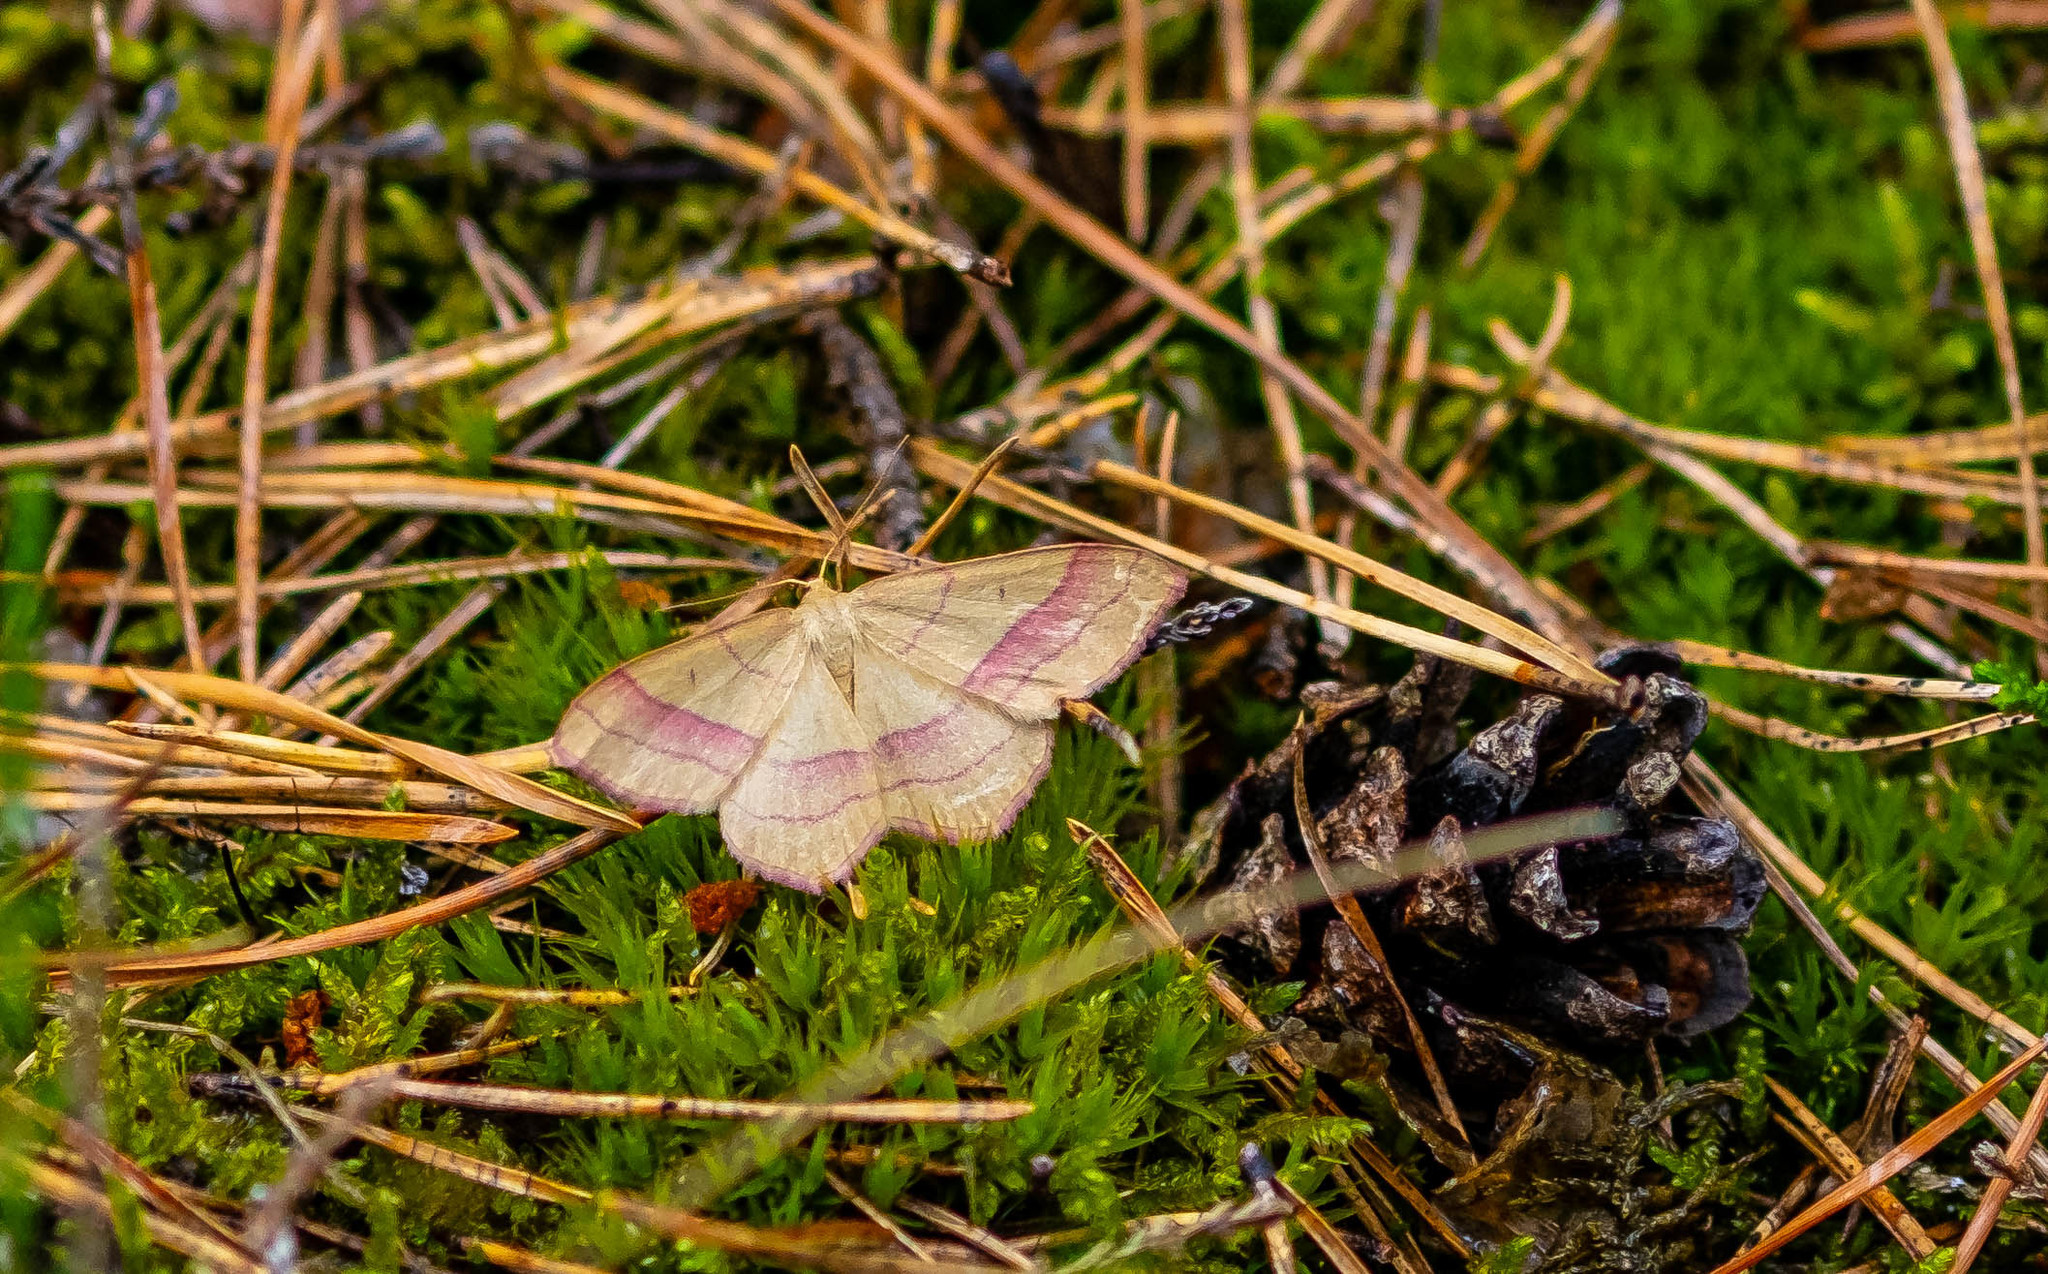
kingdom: Animalia
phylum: Arthropoda
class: Insecta
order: Lepidoptera
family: Geometridae
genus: Rhodostrophia
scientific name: Rhodostrophia vibicaria
